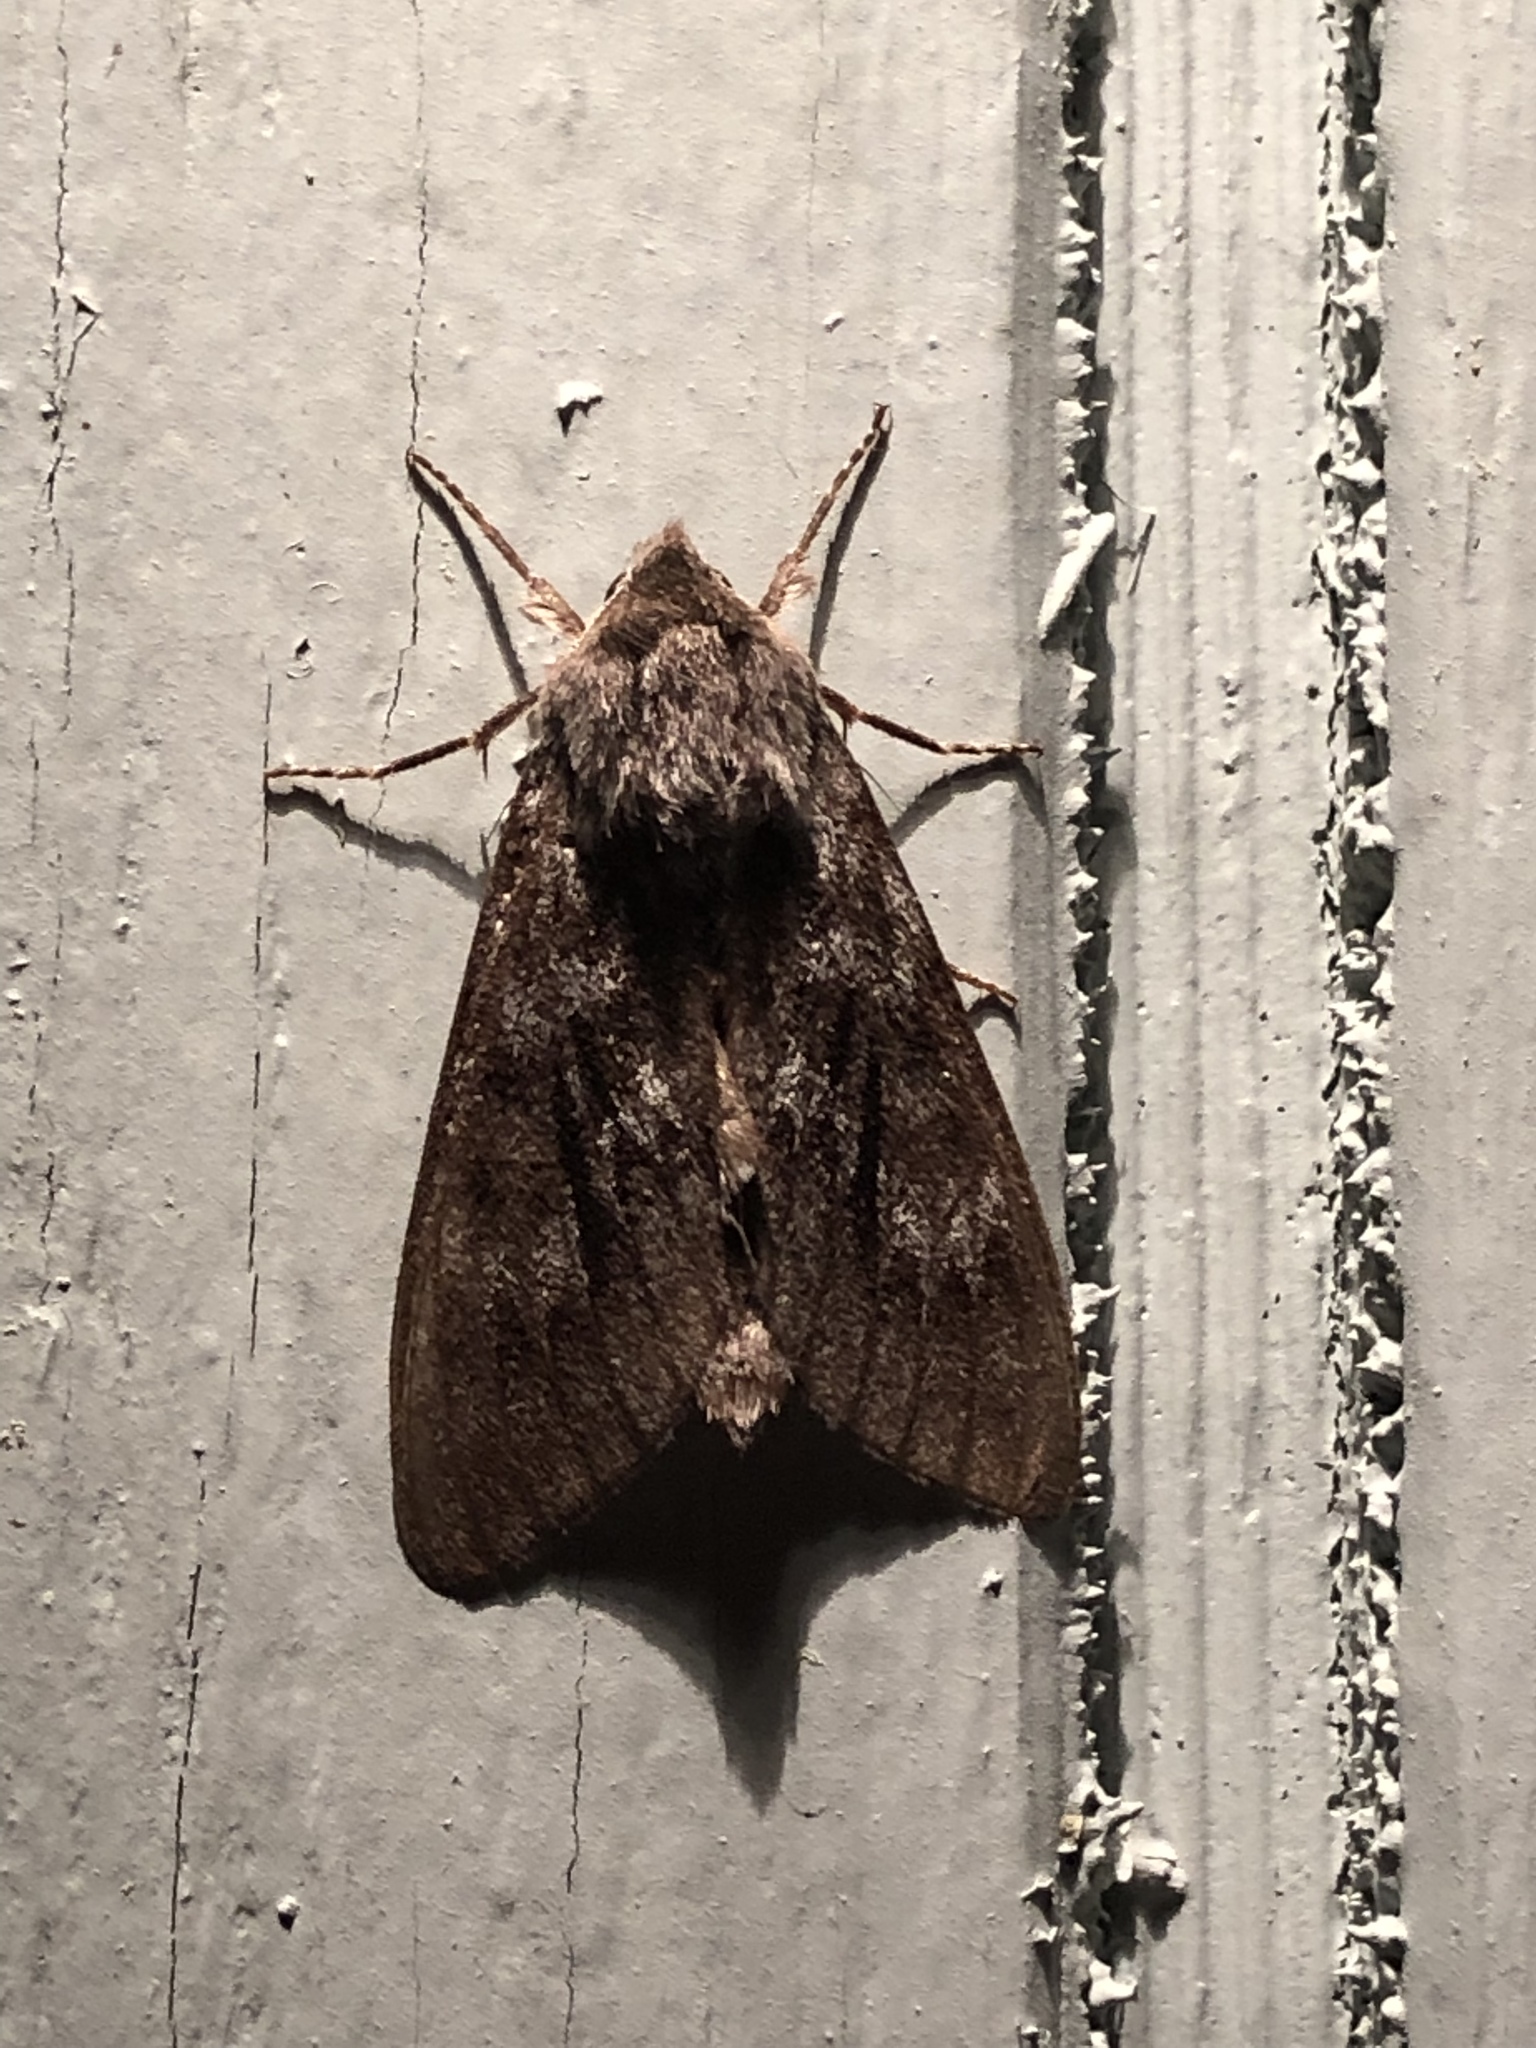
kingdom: Animalia
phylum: Arthropoda
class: Insecta
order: Lepidoptera
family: Sphingidae
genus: Lapara
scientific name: Lapara bombycoides
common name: Northern pine sphinx
